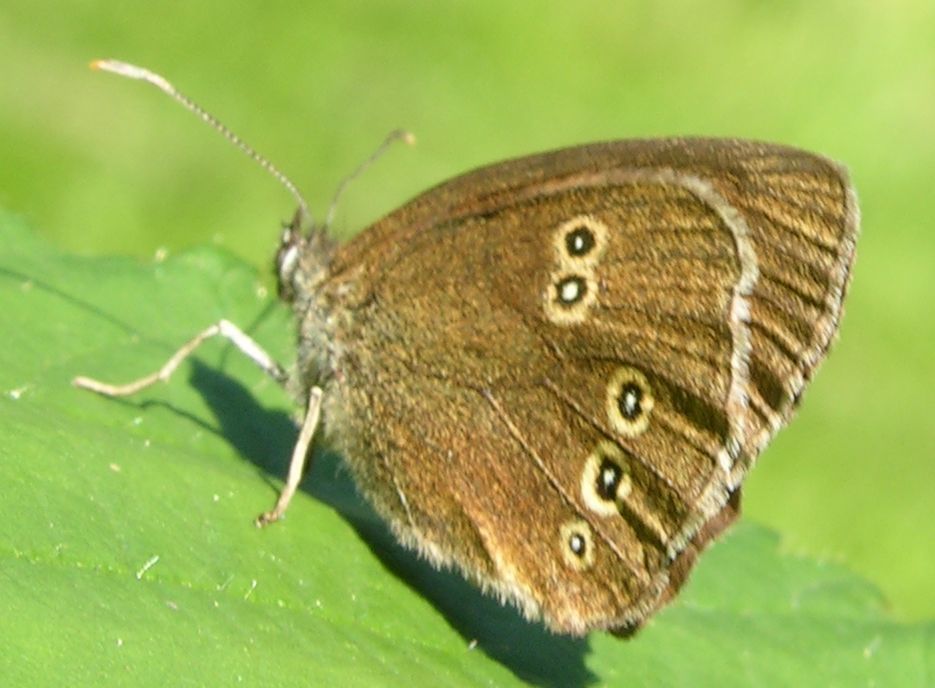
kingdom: Animalia
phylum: Arthropoda
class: Insecta
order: Lepidoptera
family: Nymphalidae
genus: Aphantopus
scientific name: Aphantopus hyperantus
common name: Ringlet
